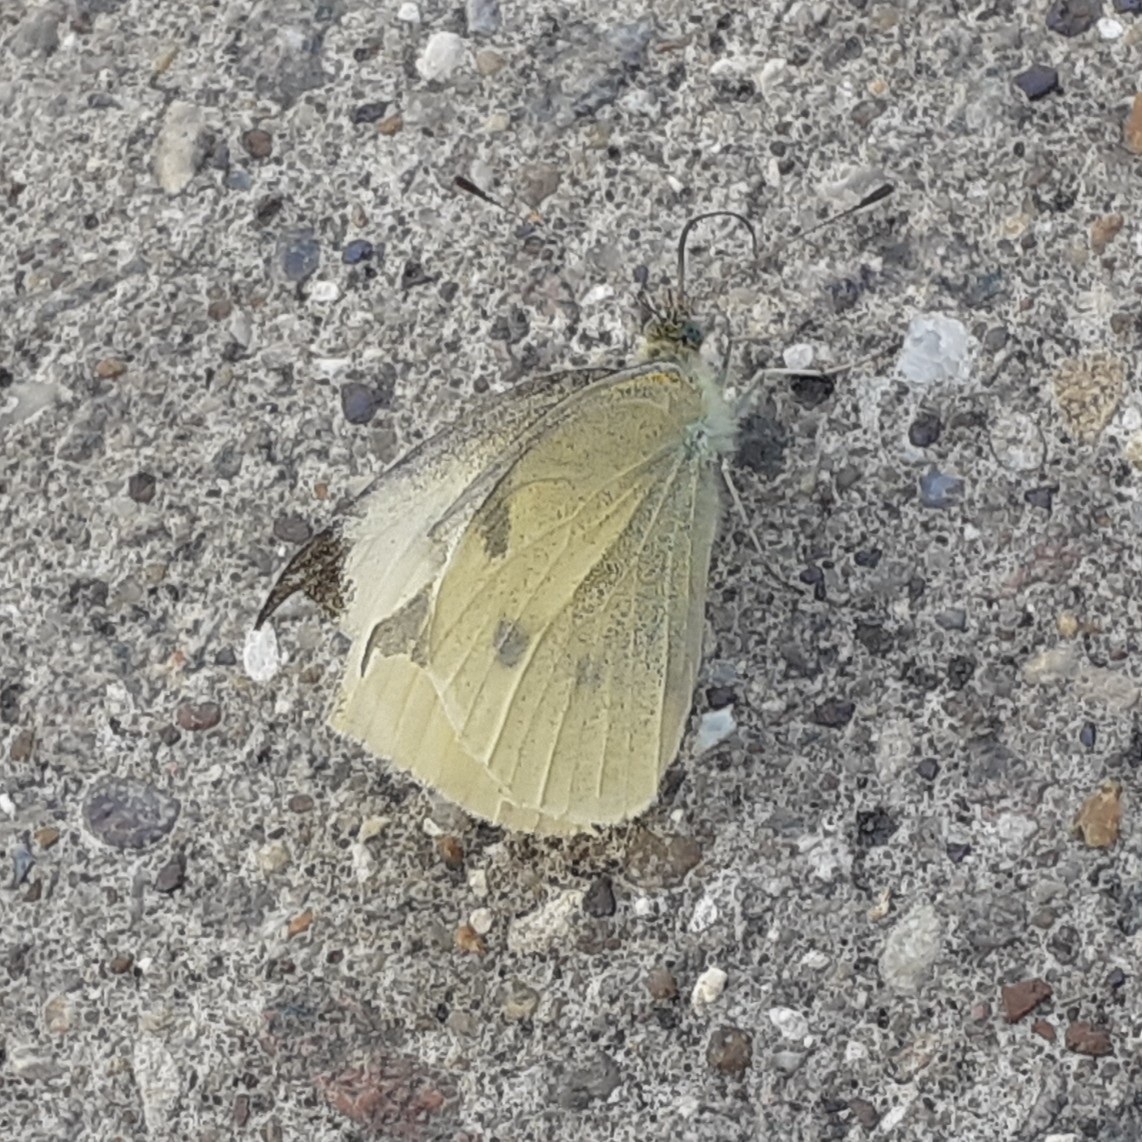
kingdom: Animalia
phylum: Arthropoda
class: Insecta
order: Lepidoptera
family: Pieridae
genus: Pieris
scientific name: Pieris rapae
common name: Small white
